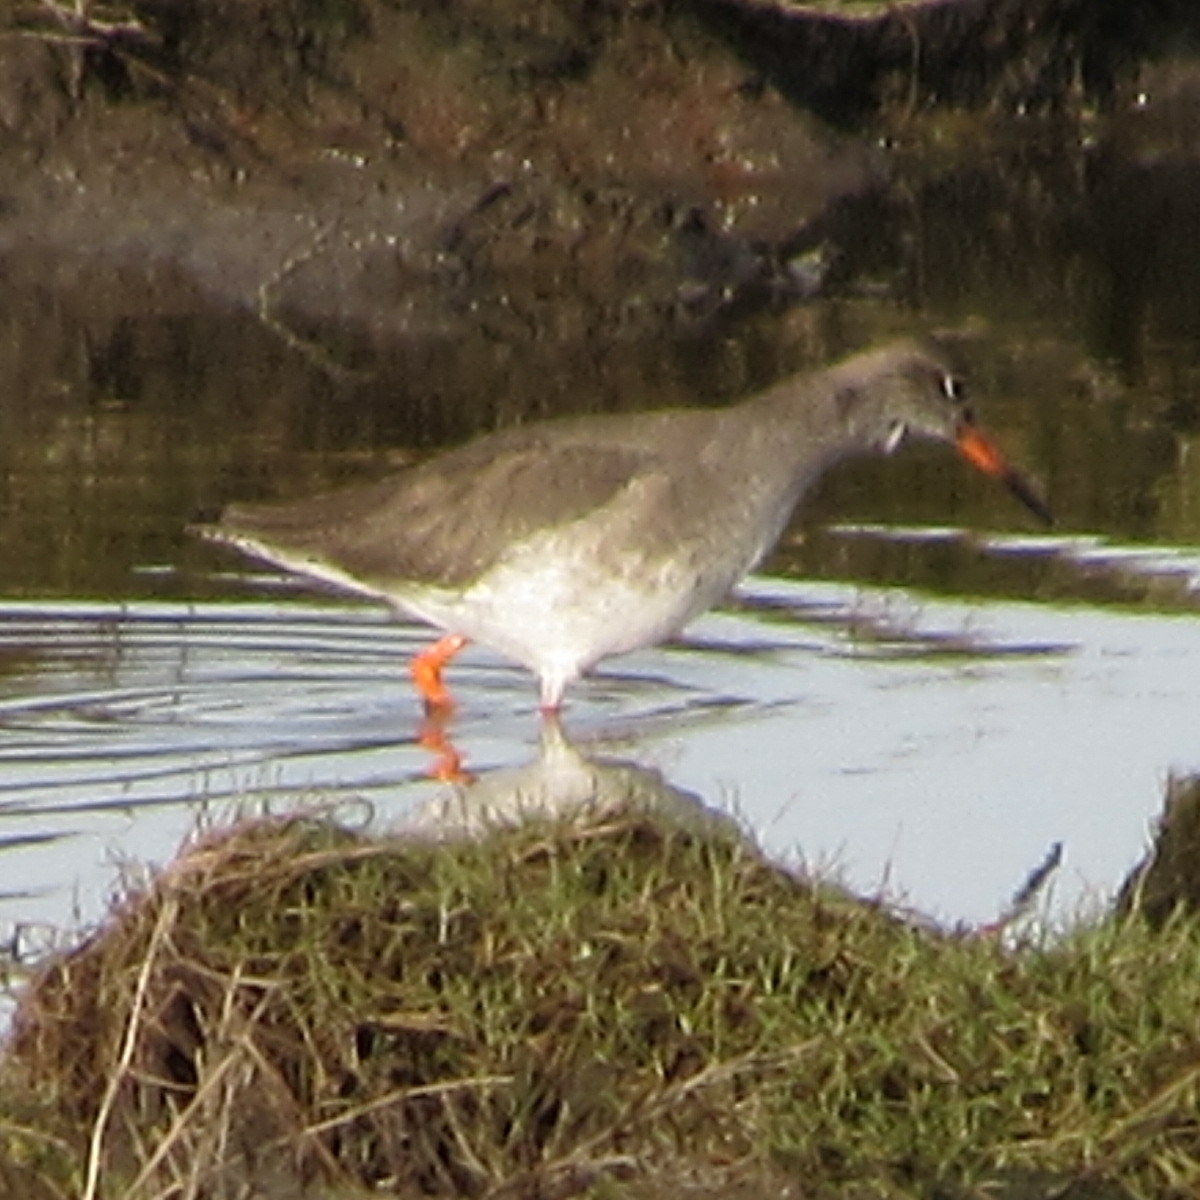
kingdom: Animalia
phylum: Chordata
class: Aves
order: Charadriiformes
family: Scolopacidae
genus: Tringa
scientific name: Tringa totanus
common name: Common redshank
